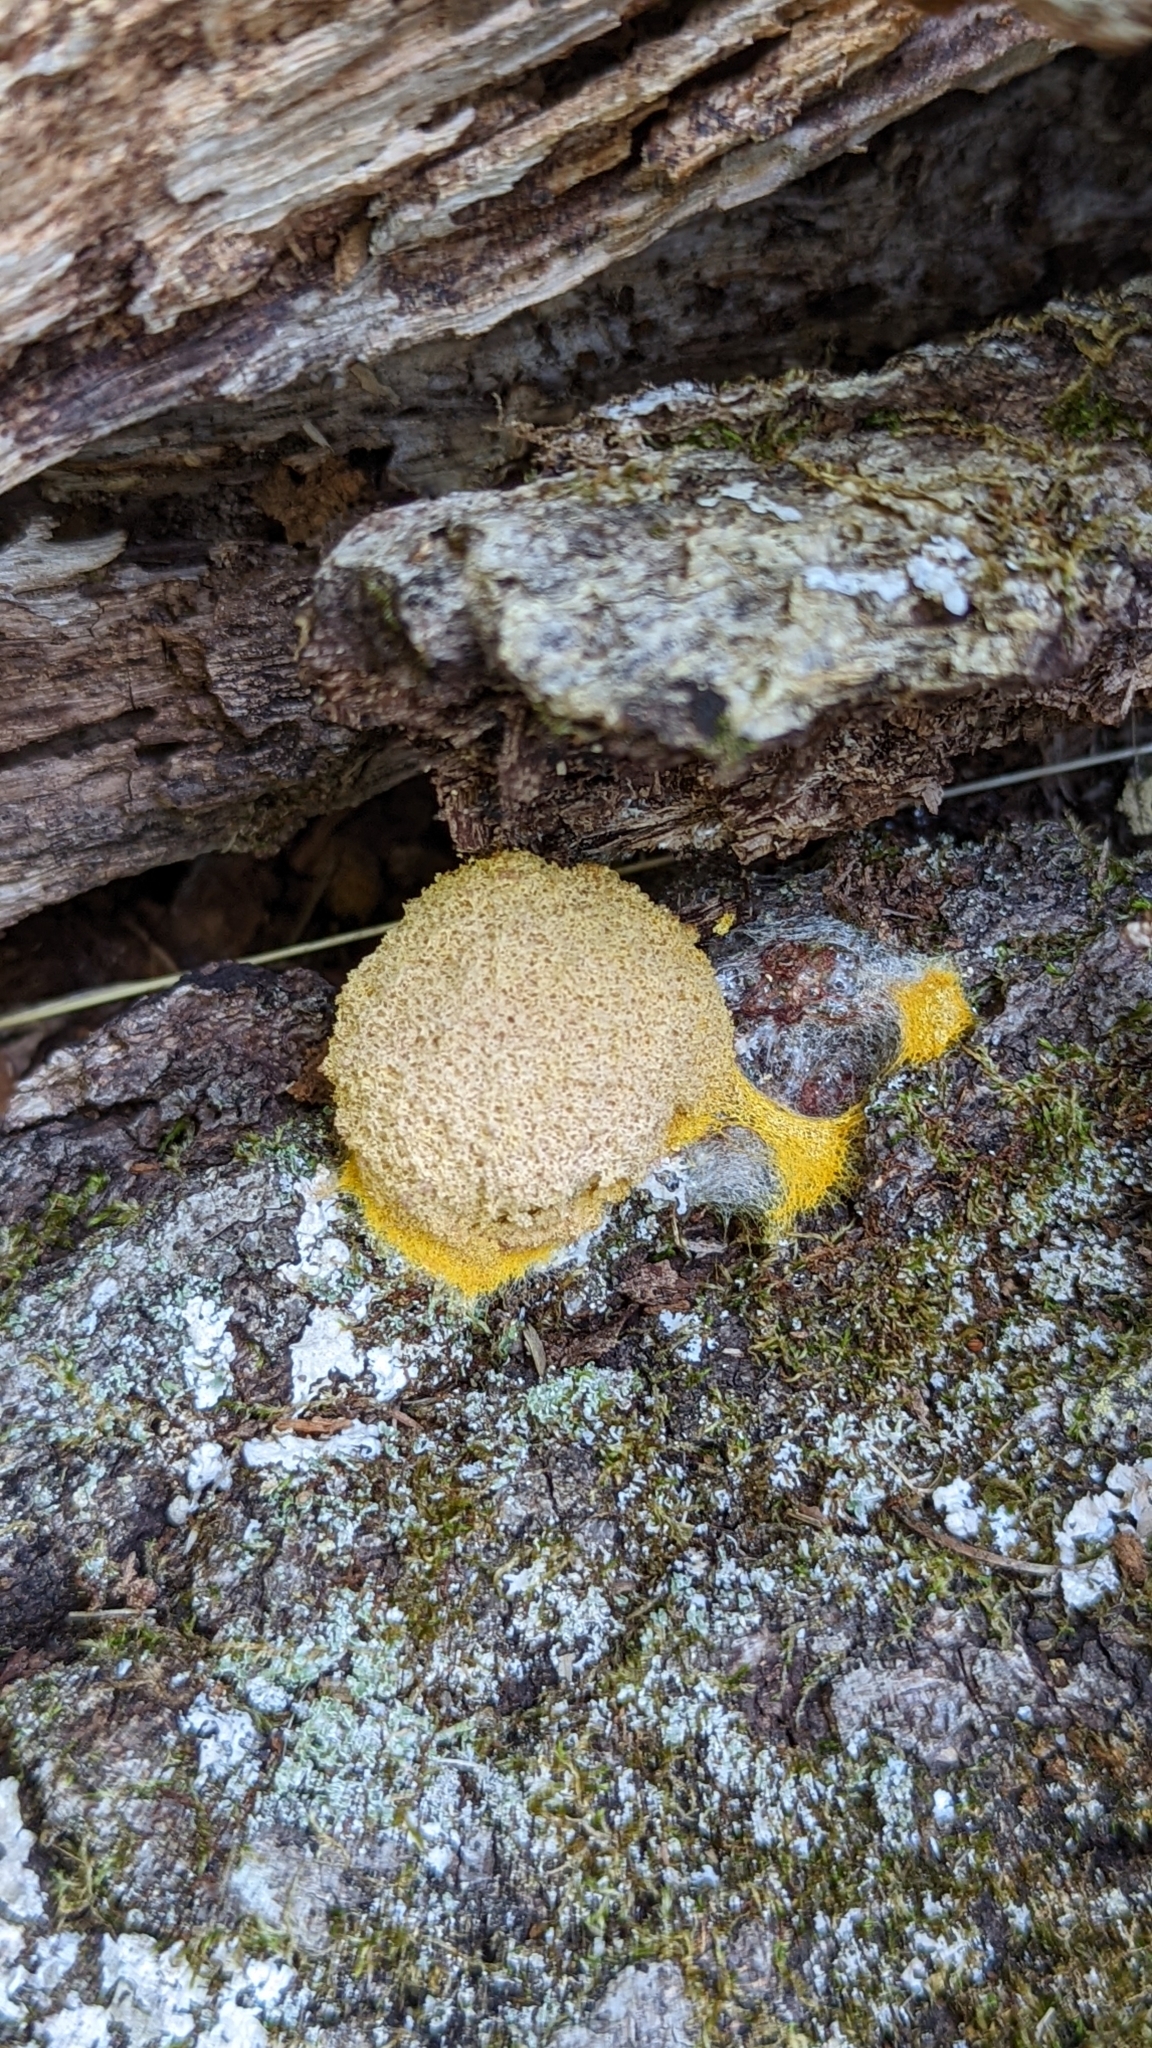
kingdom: Protozoa
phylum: Mycetozoa
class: Myxomycetes
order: Physarales
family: Physaraceae
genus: Fuligo
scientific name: Fuligo septica
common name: Dog vomit slime mold
